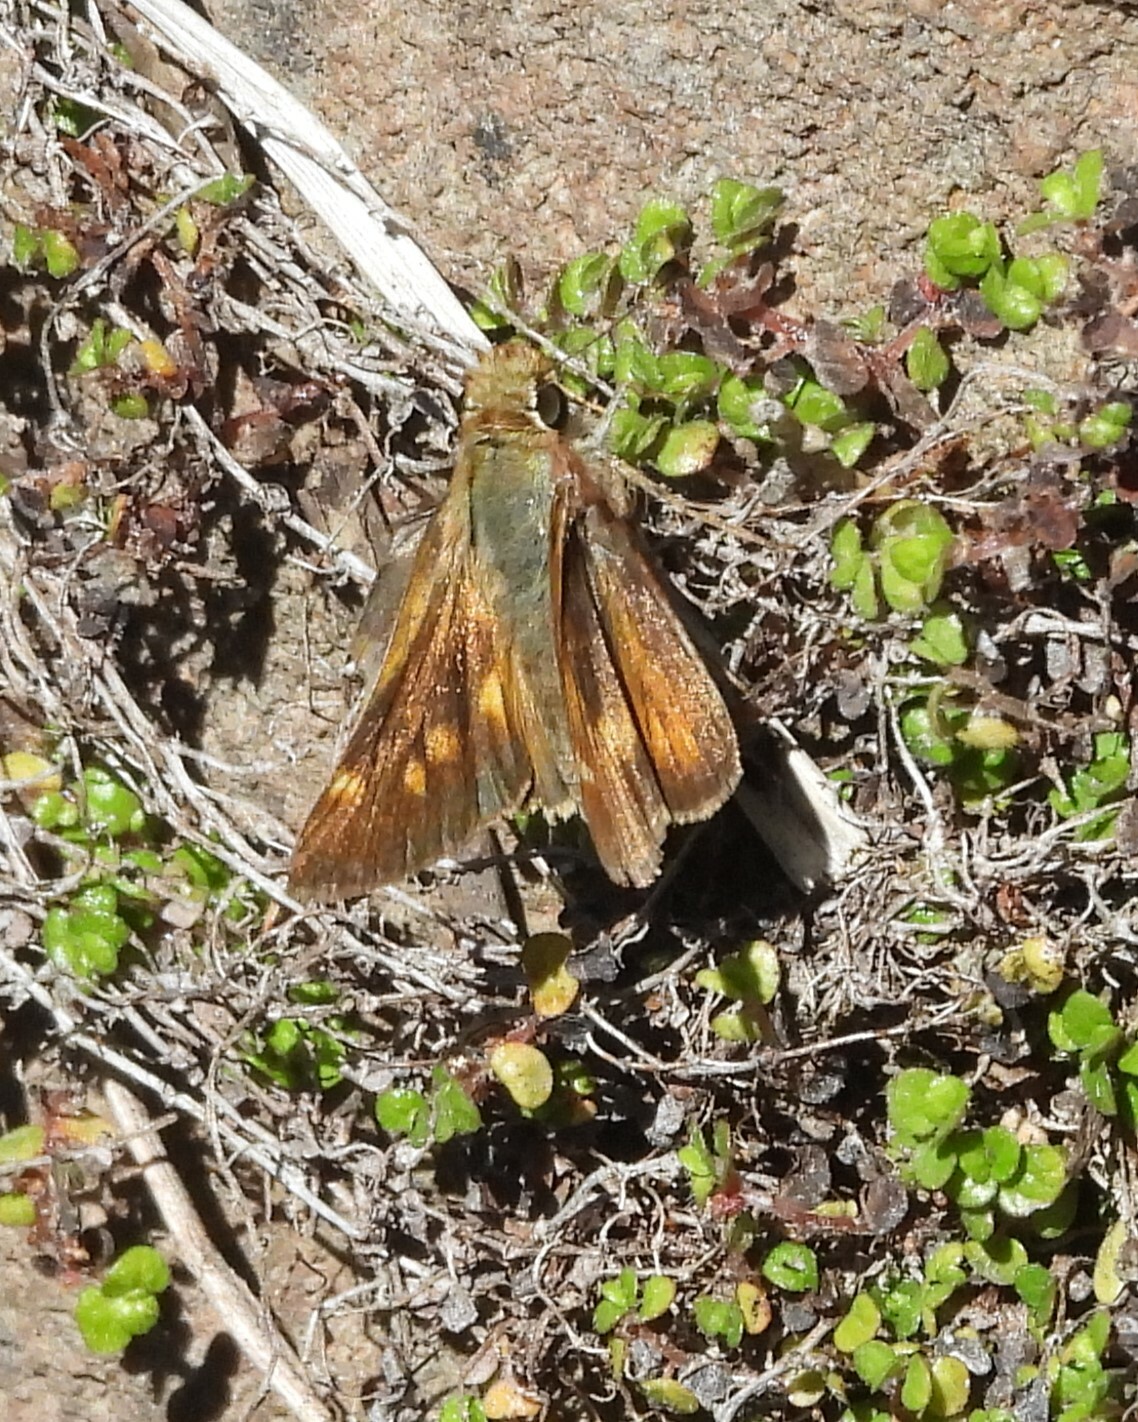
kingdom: Animalia
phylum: Arthropoda
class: Insecta
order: Lepidoptera
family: Hesperiidae
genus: Lon
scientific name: Lon melane
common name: Umber skipper
